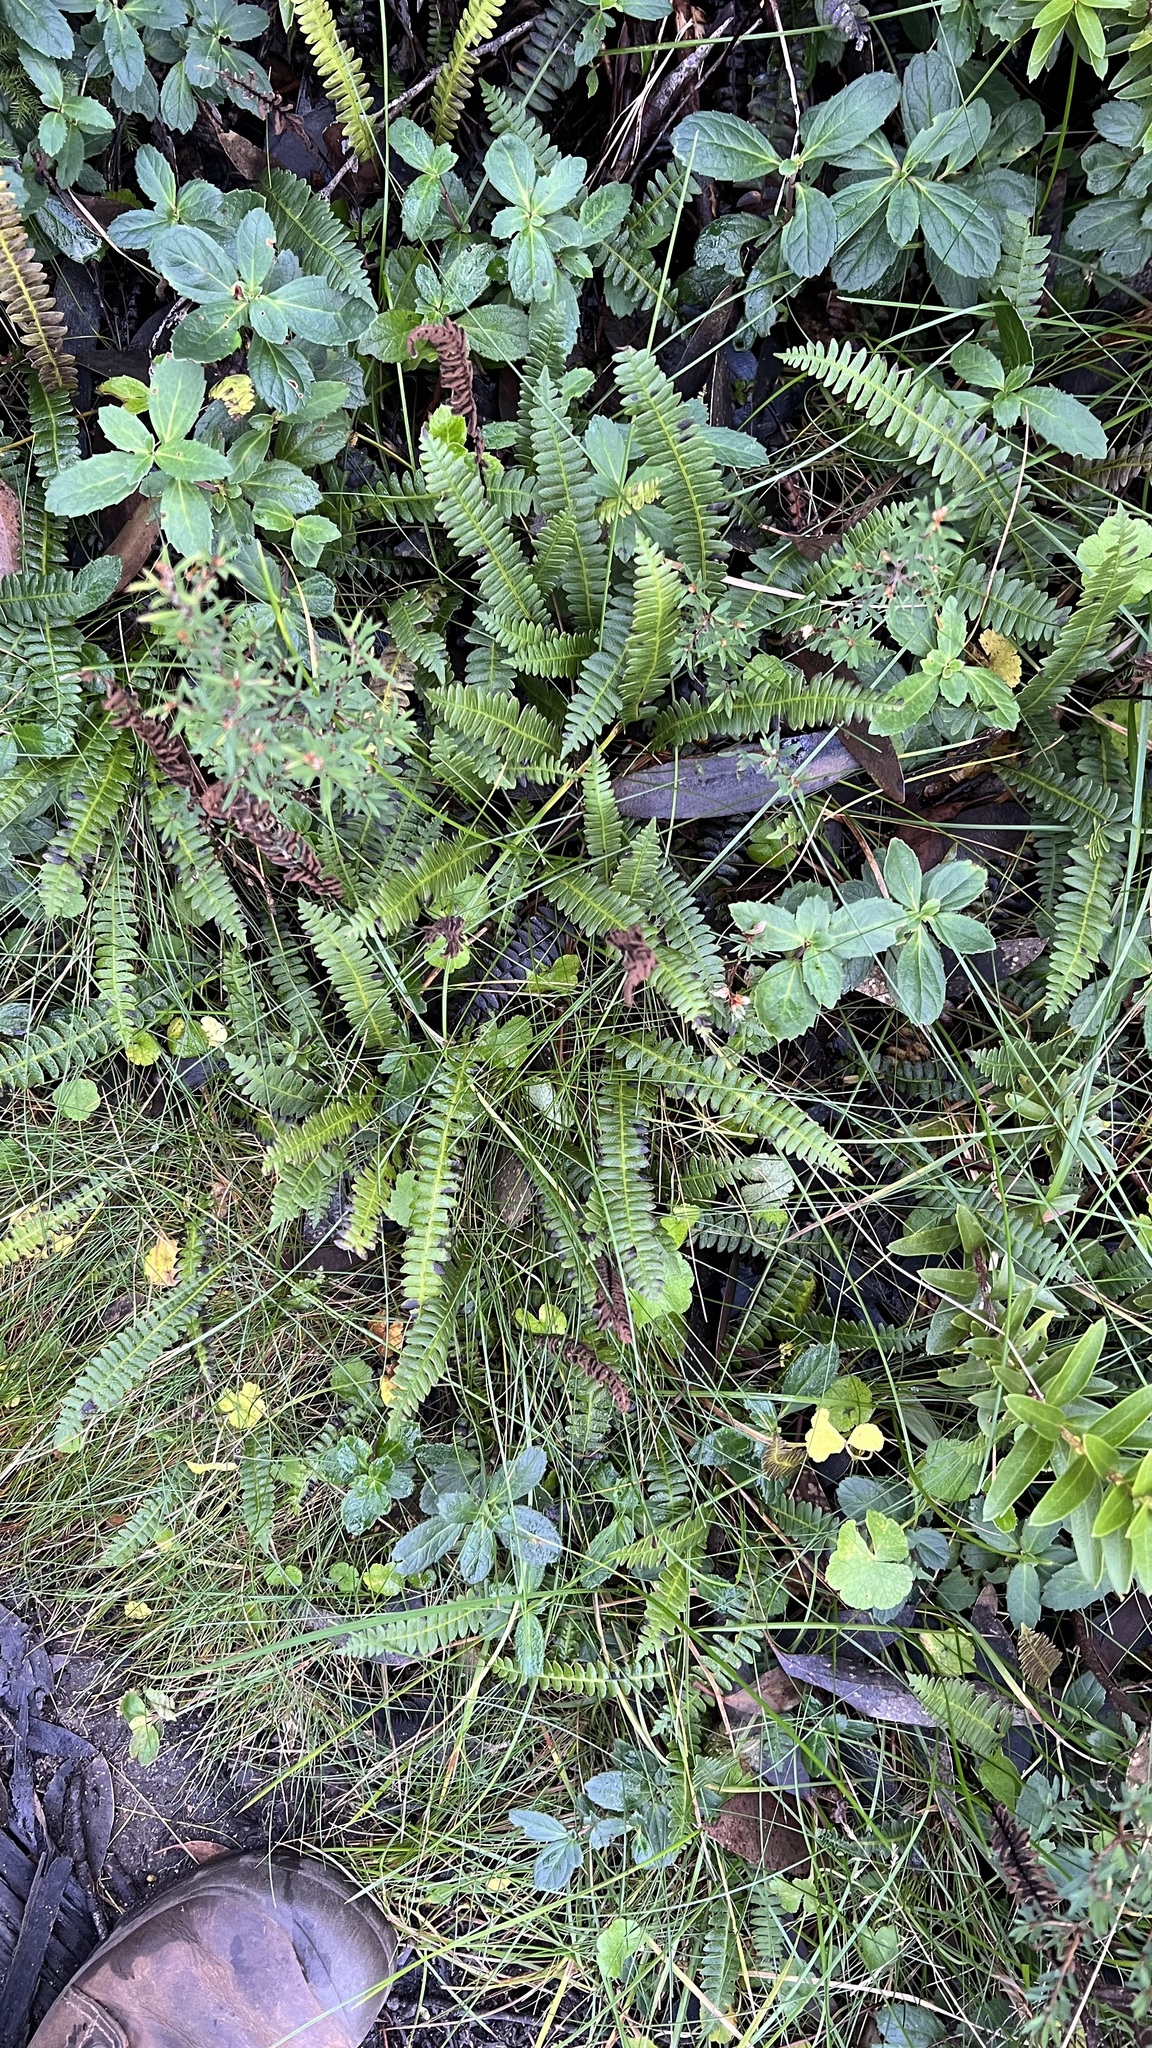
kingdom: Plantae
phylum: Tracheophyta
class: Polypodiopsida
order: Polypodiales
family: Blechnaceae
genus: Austroblechnum
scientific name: Austroblechnum penna-marina
